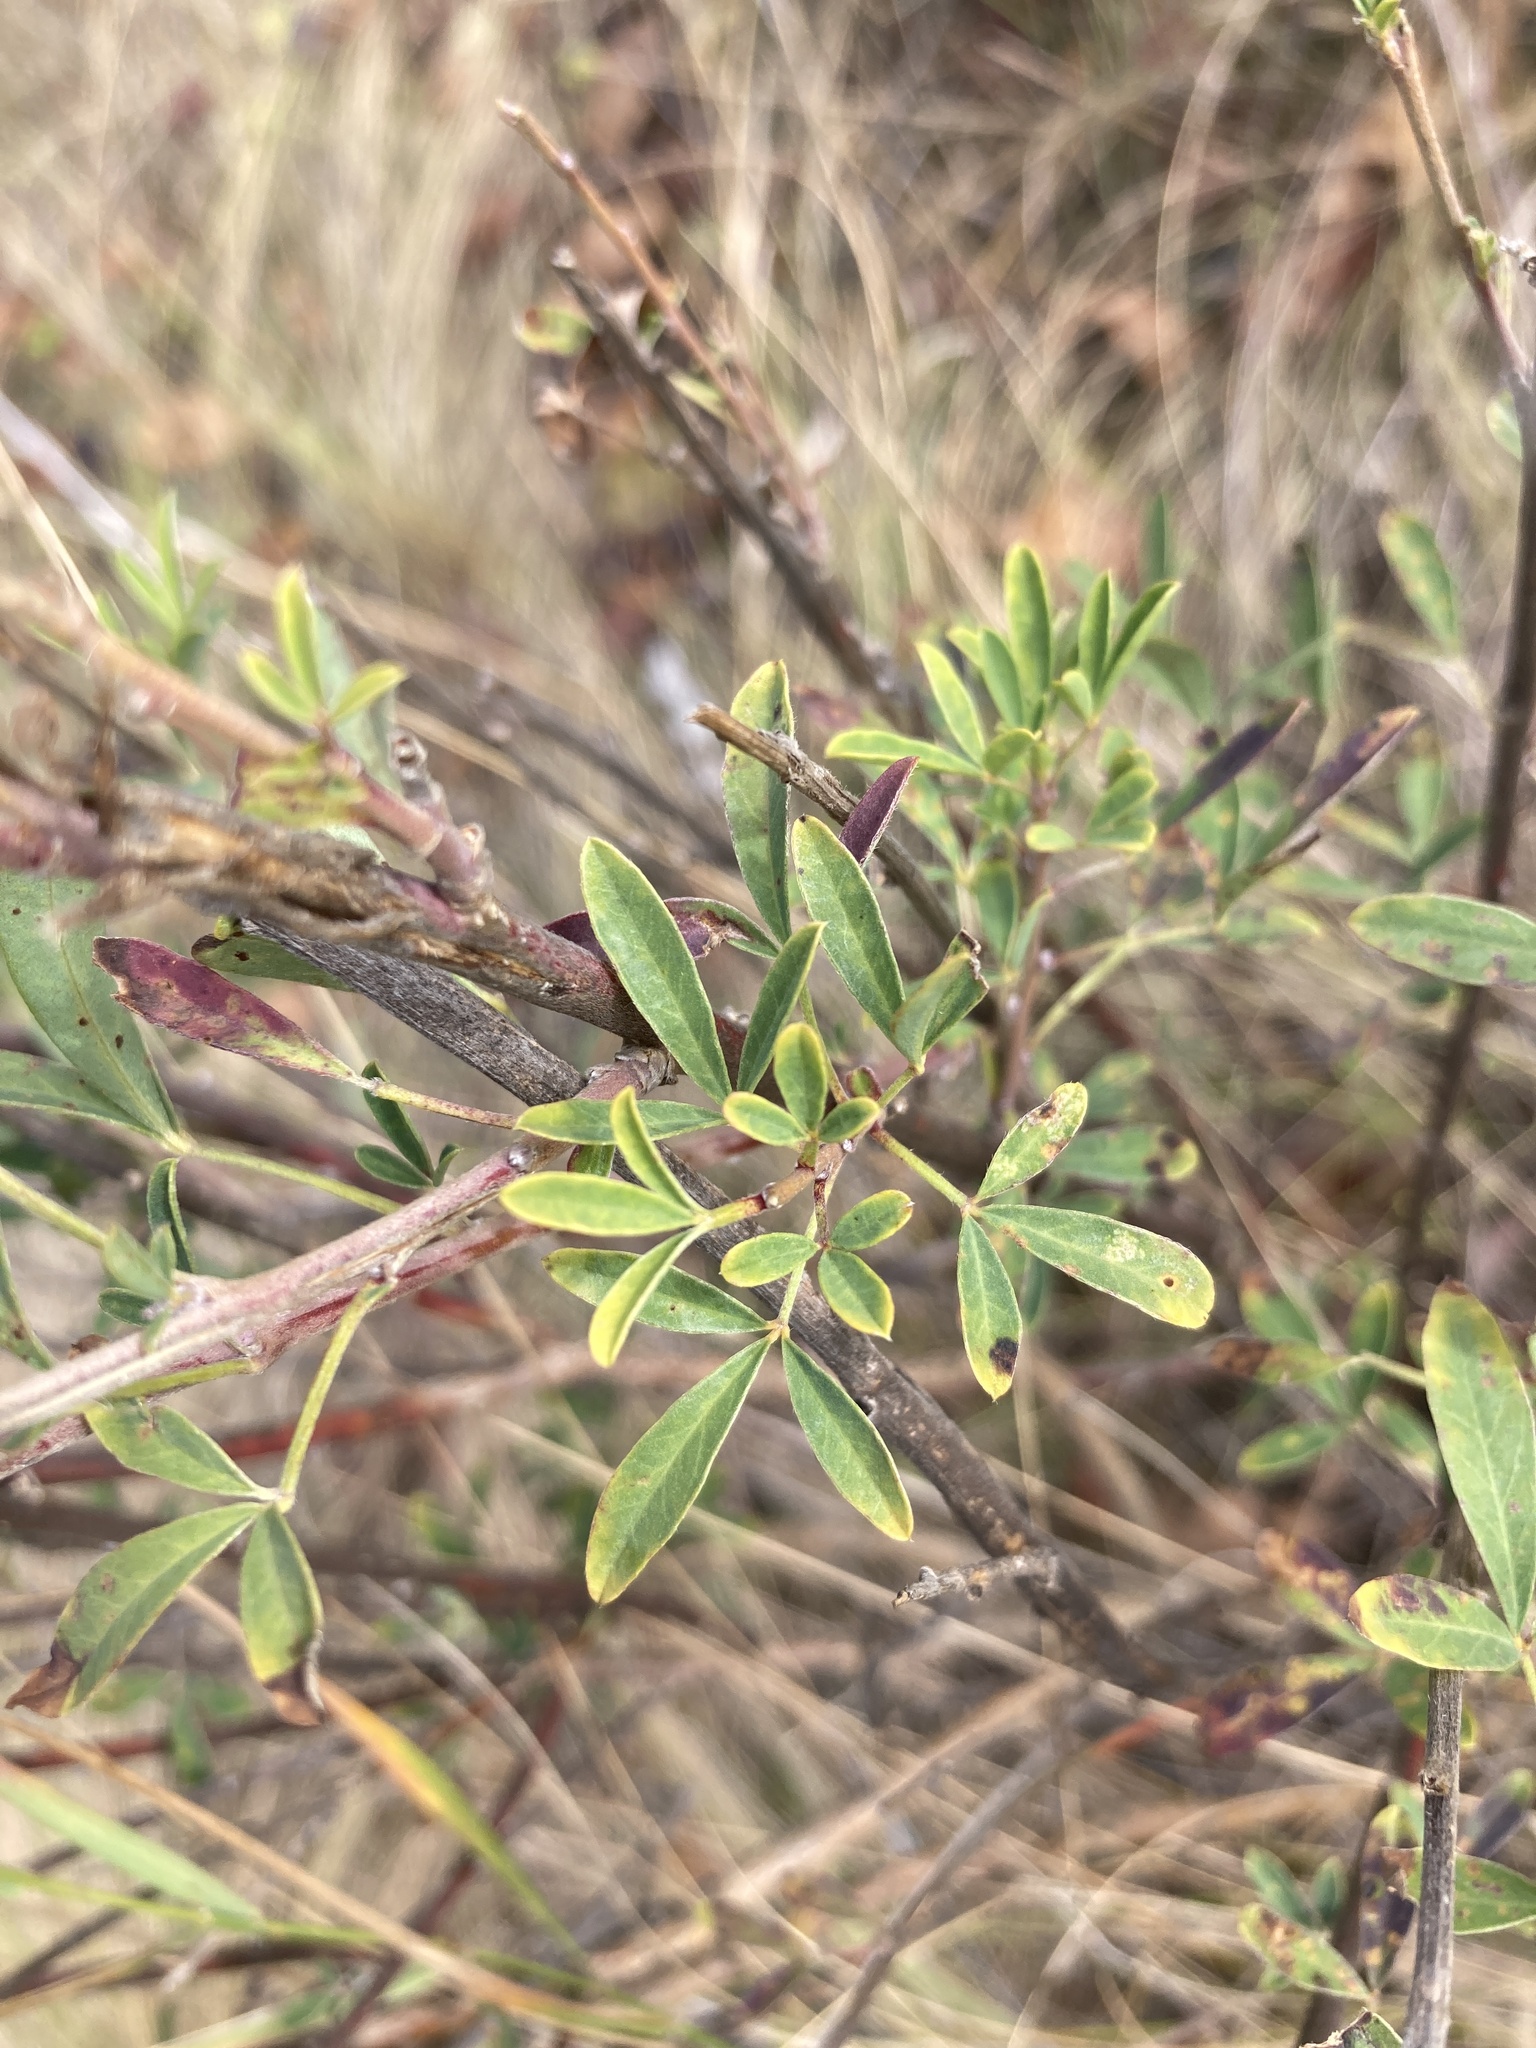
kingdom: Plantae
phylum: Tracheophyta
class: Magnoliopsida
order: Fabales
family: Fabaceae
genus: Chamaecytisus
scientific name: Chamaecytisus ruthenicus
